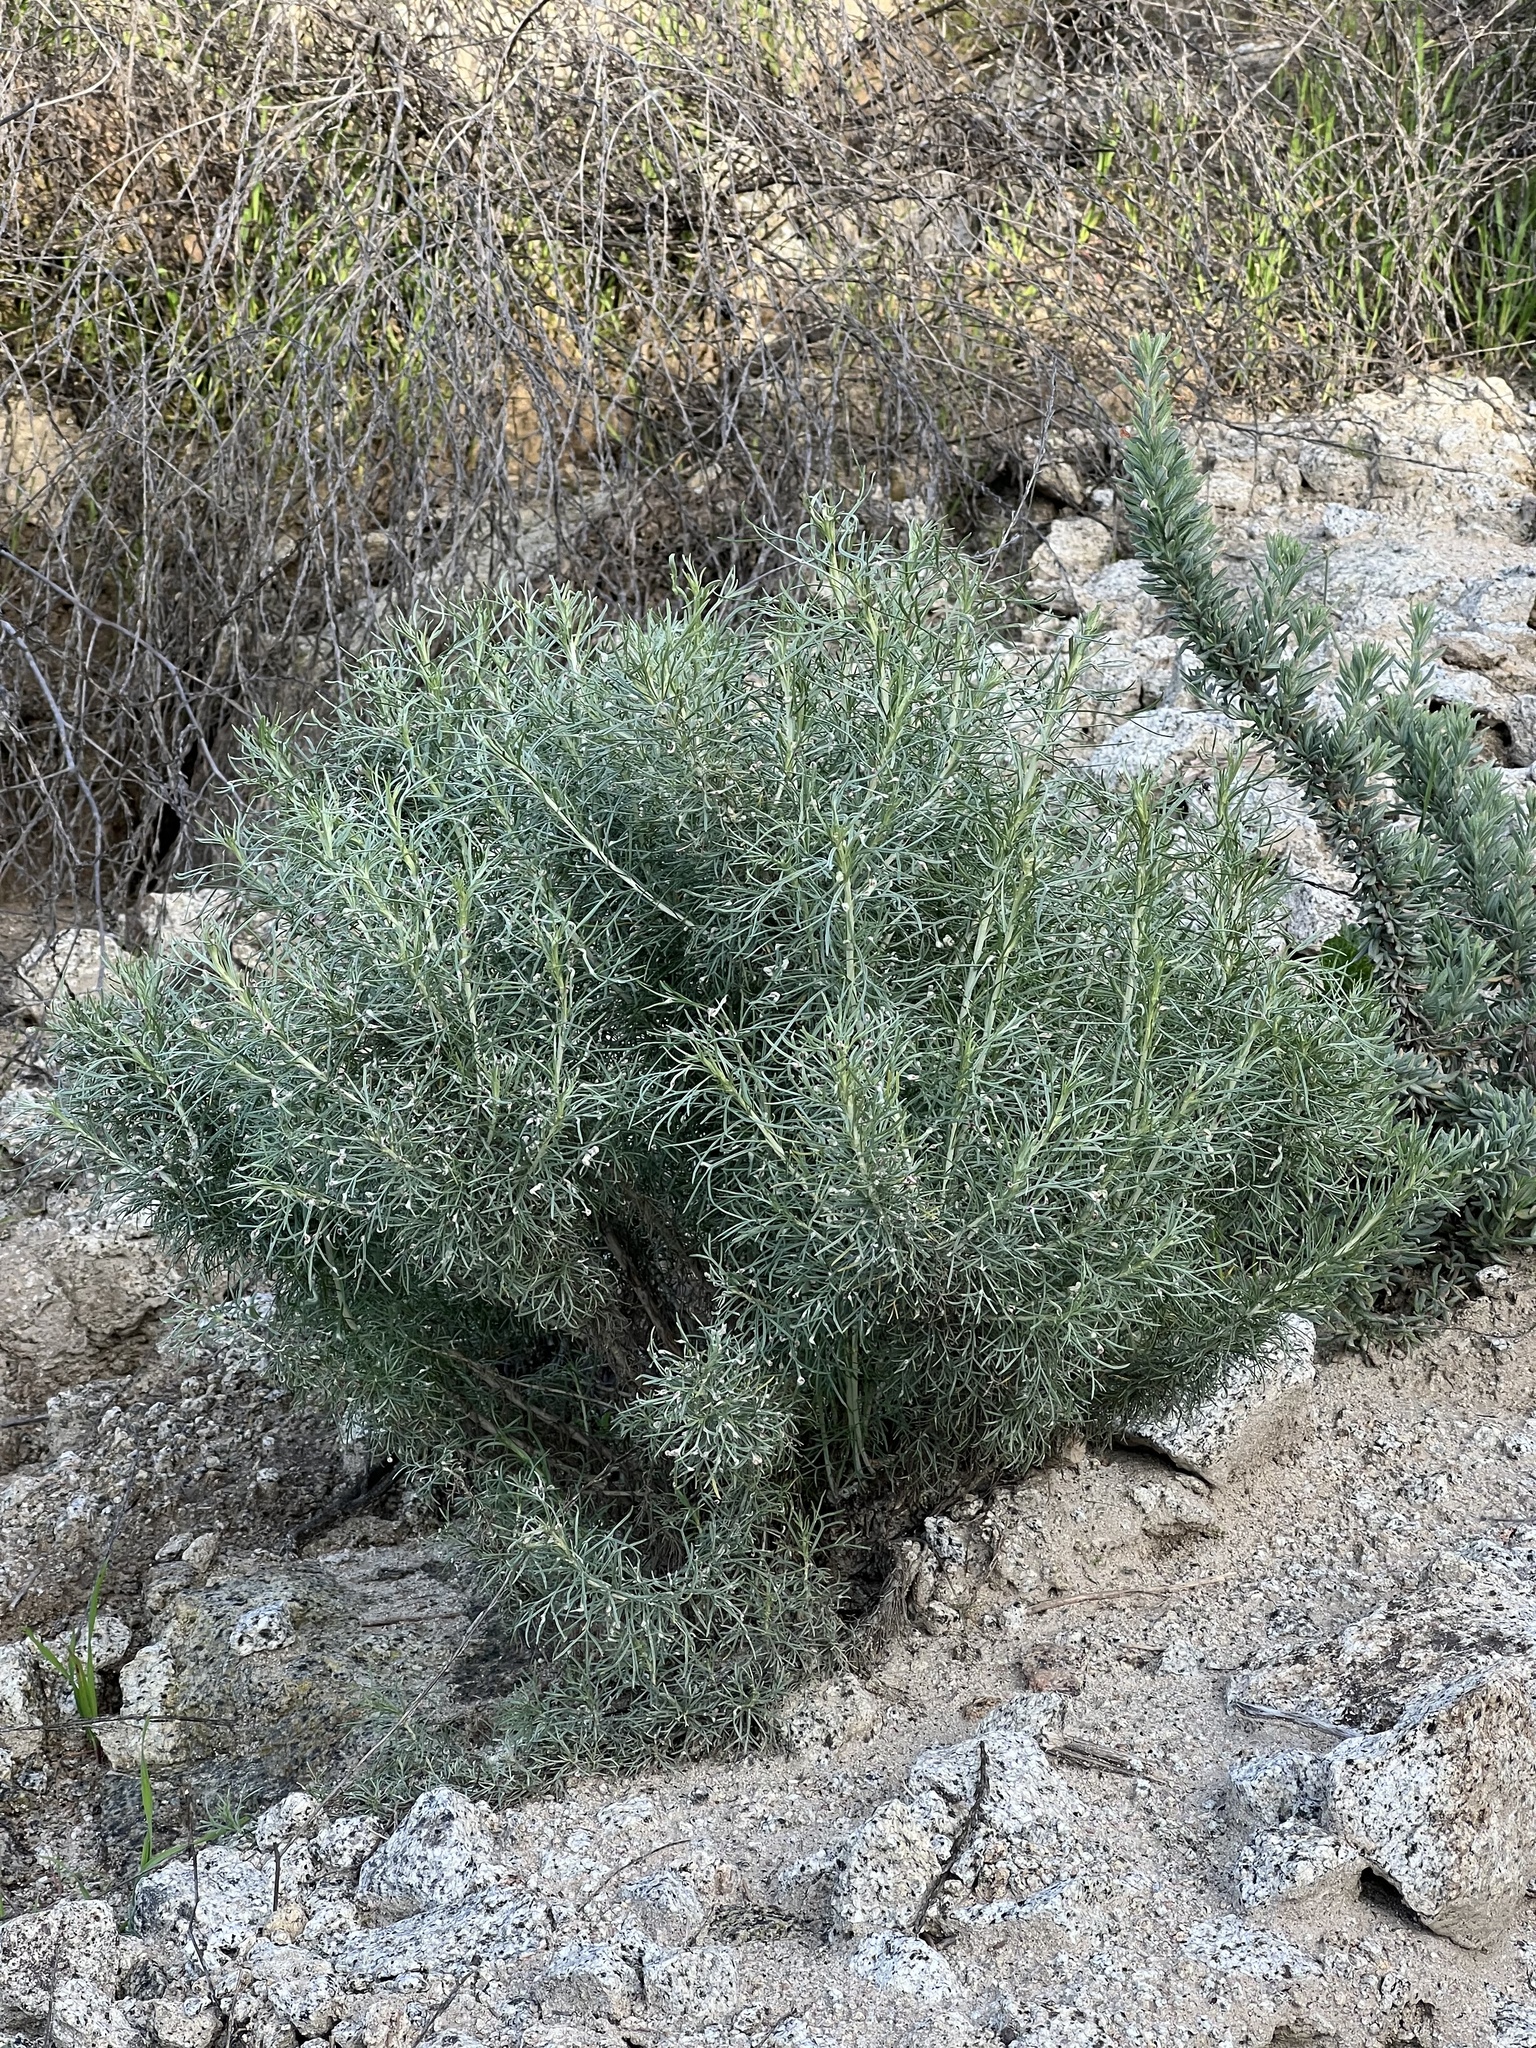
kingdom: Plantae
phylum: Tracheophyta
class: Magnoliopsida
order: Asterales
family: Asteraceae
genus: Artemisia
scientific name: Artemisia californica
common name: California sagebrush
